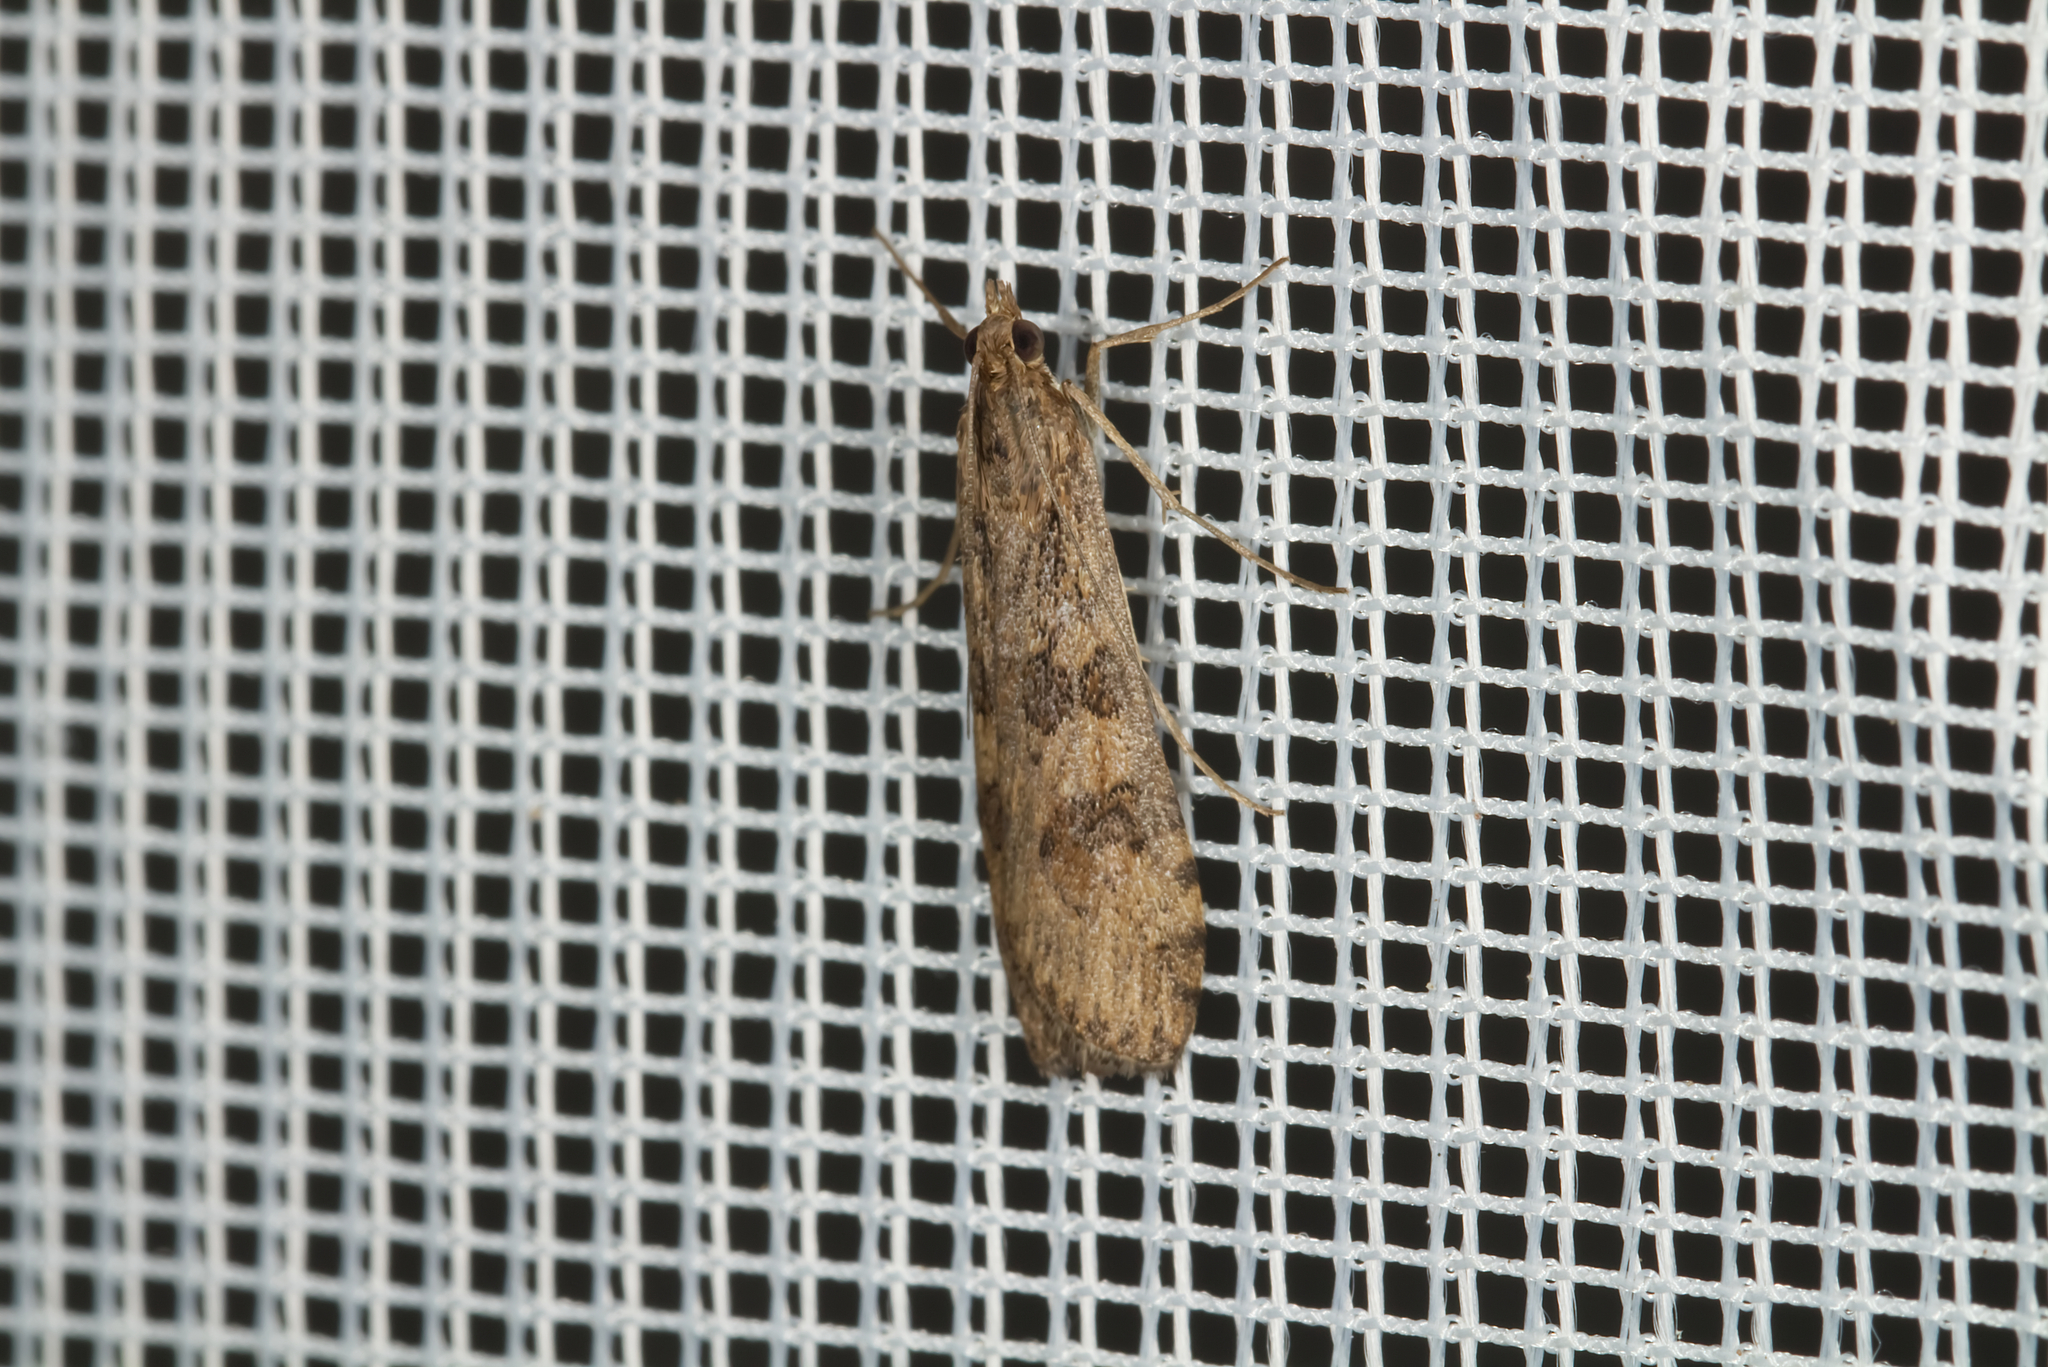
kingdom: Animalia
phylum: Arthropoda
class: Insecta
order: Lepidoptera
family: Crambidae
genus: Nomophila
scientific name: Nomophila noctuella
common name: Rush veneer
